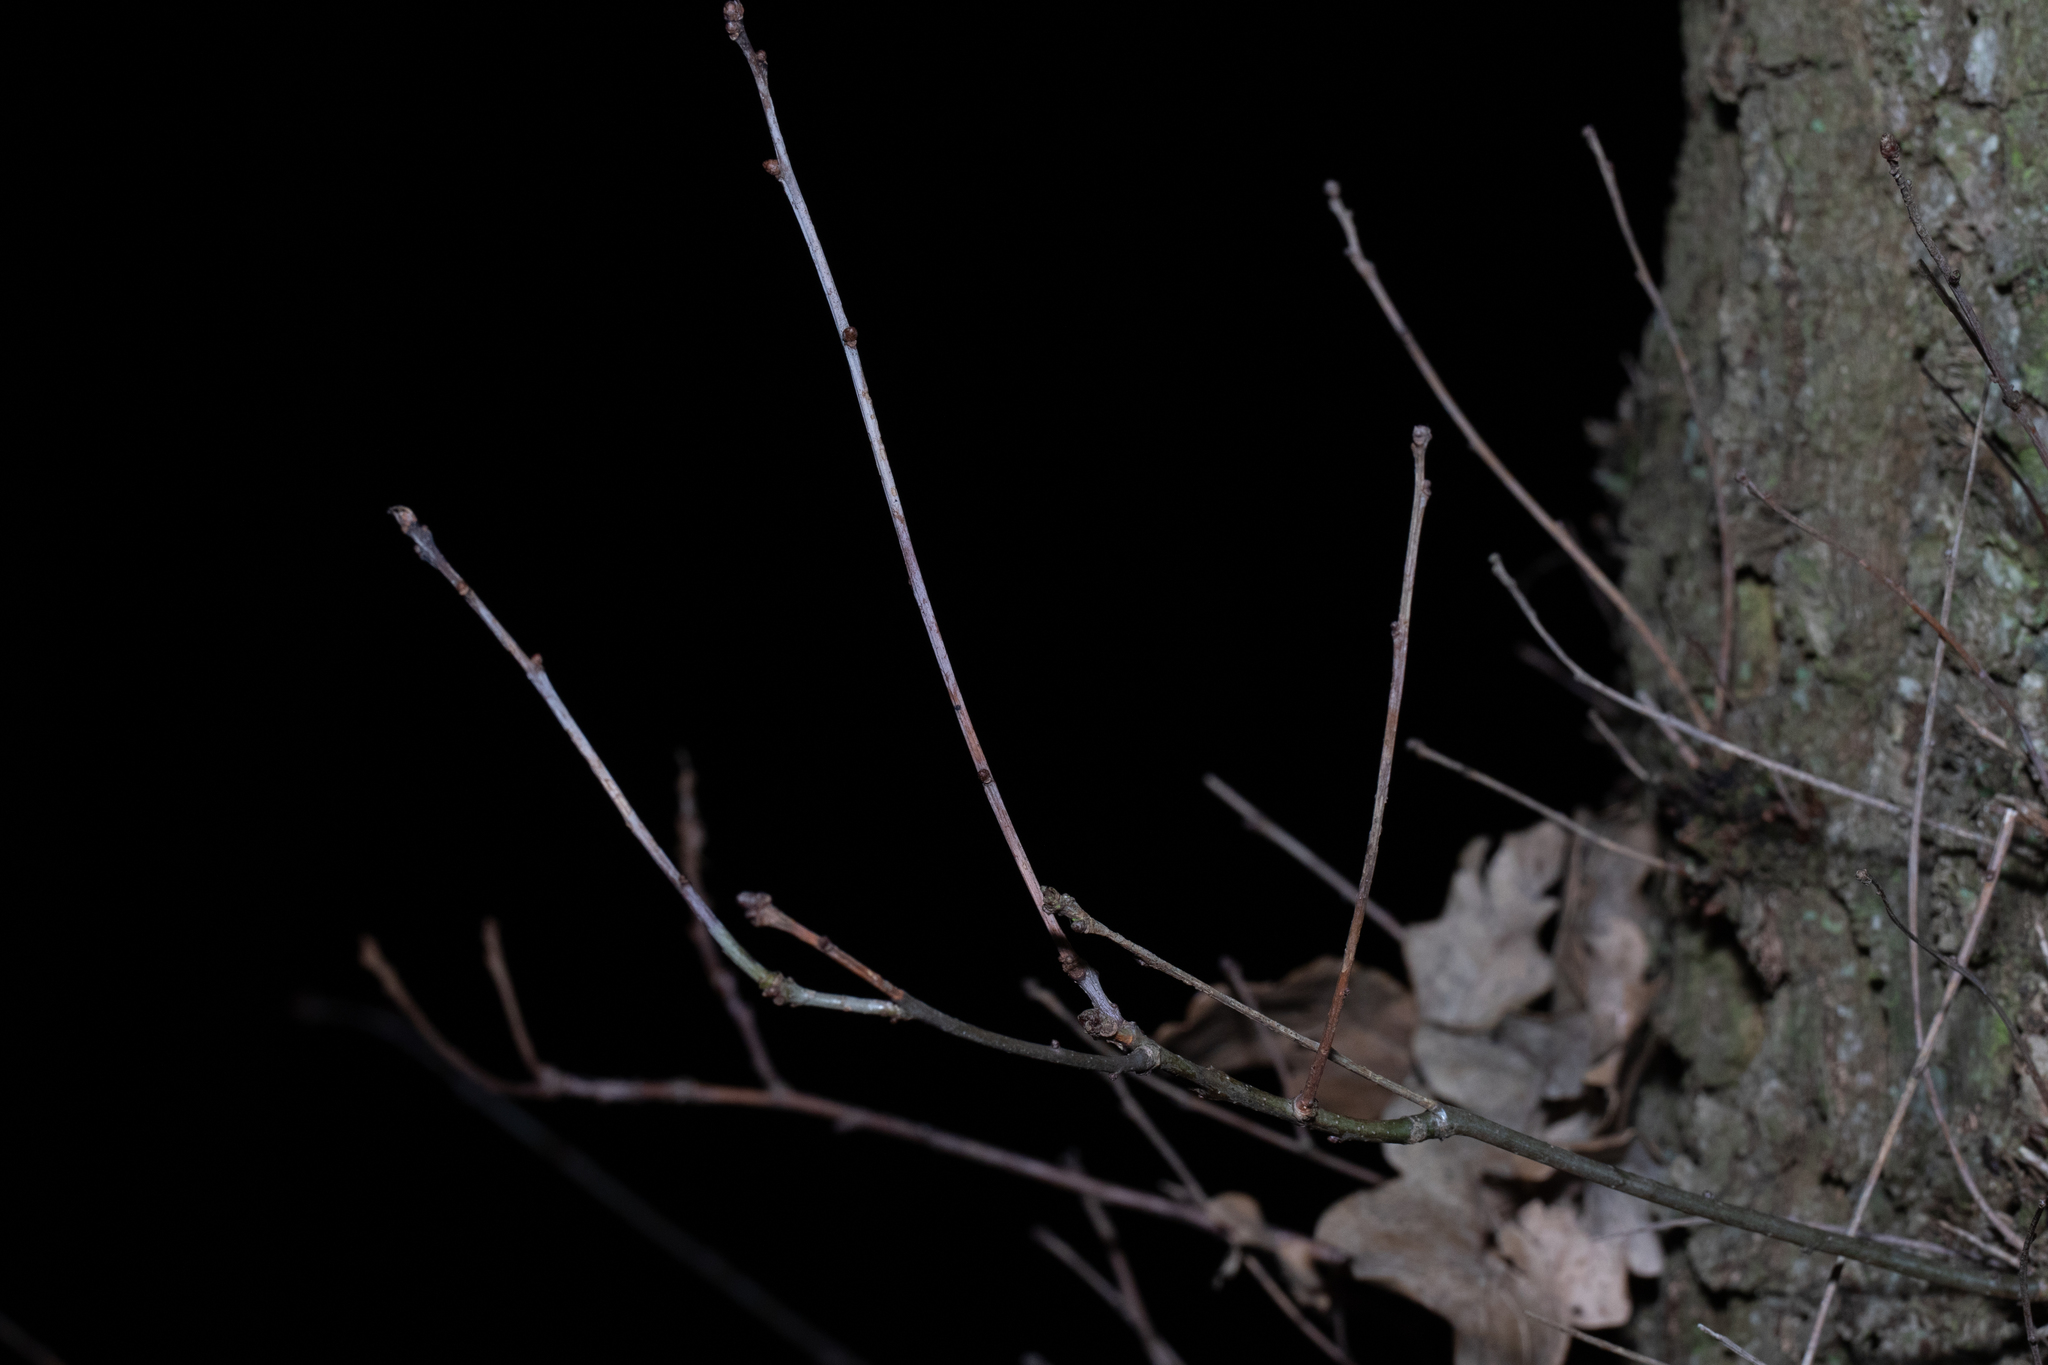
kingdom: Animalia
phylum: Arthropoda
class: Insecta
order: Hymenoptera
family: Cynipidae
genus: Andricus
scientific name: Andricus kollari
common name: Marble gall
